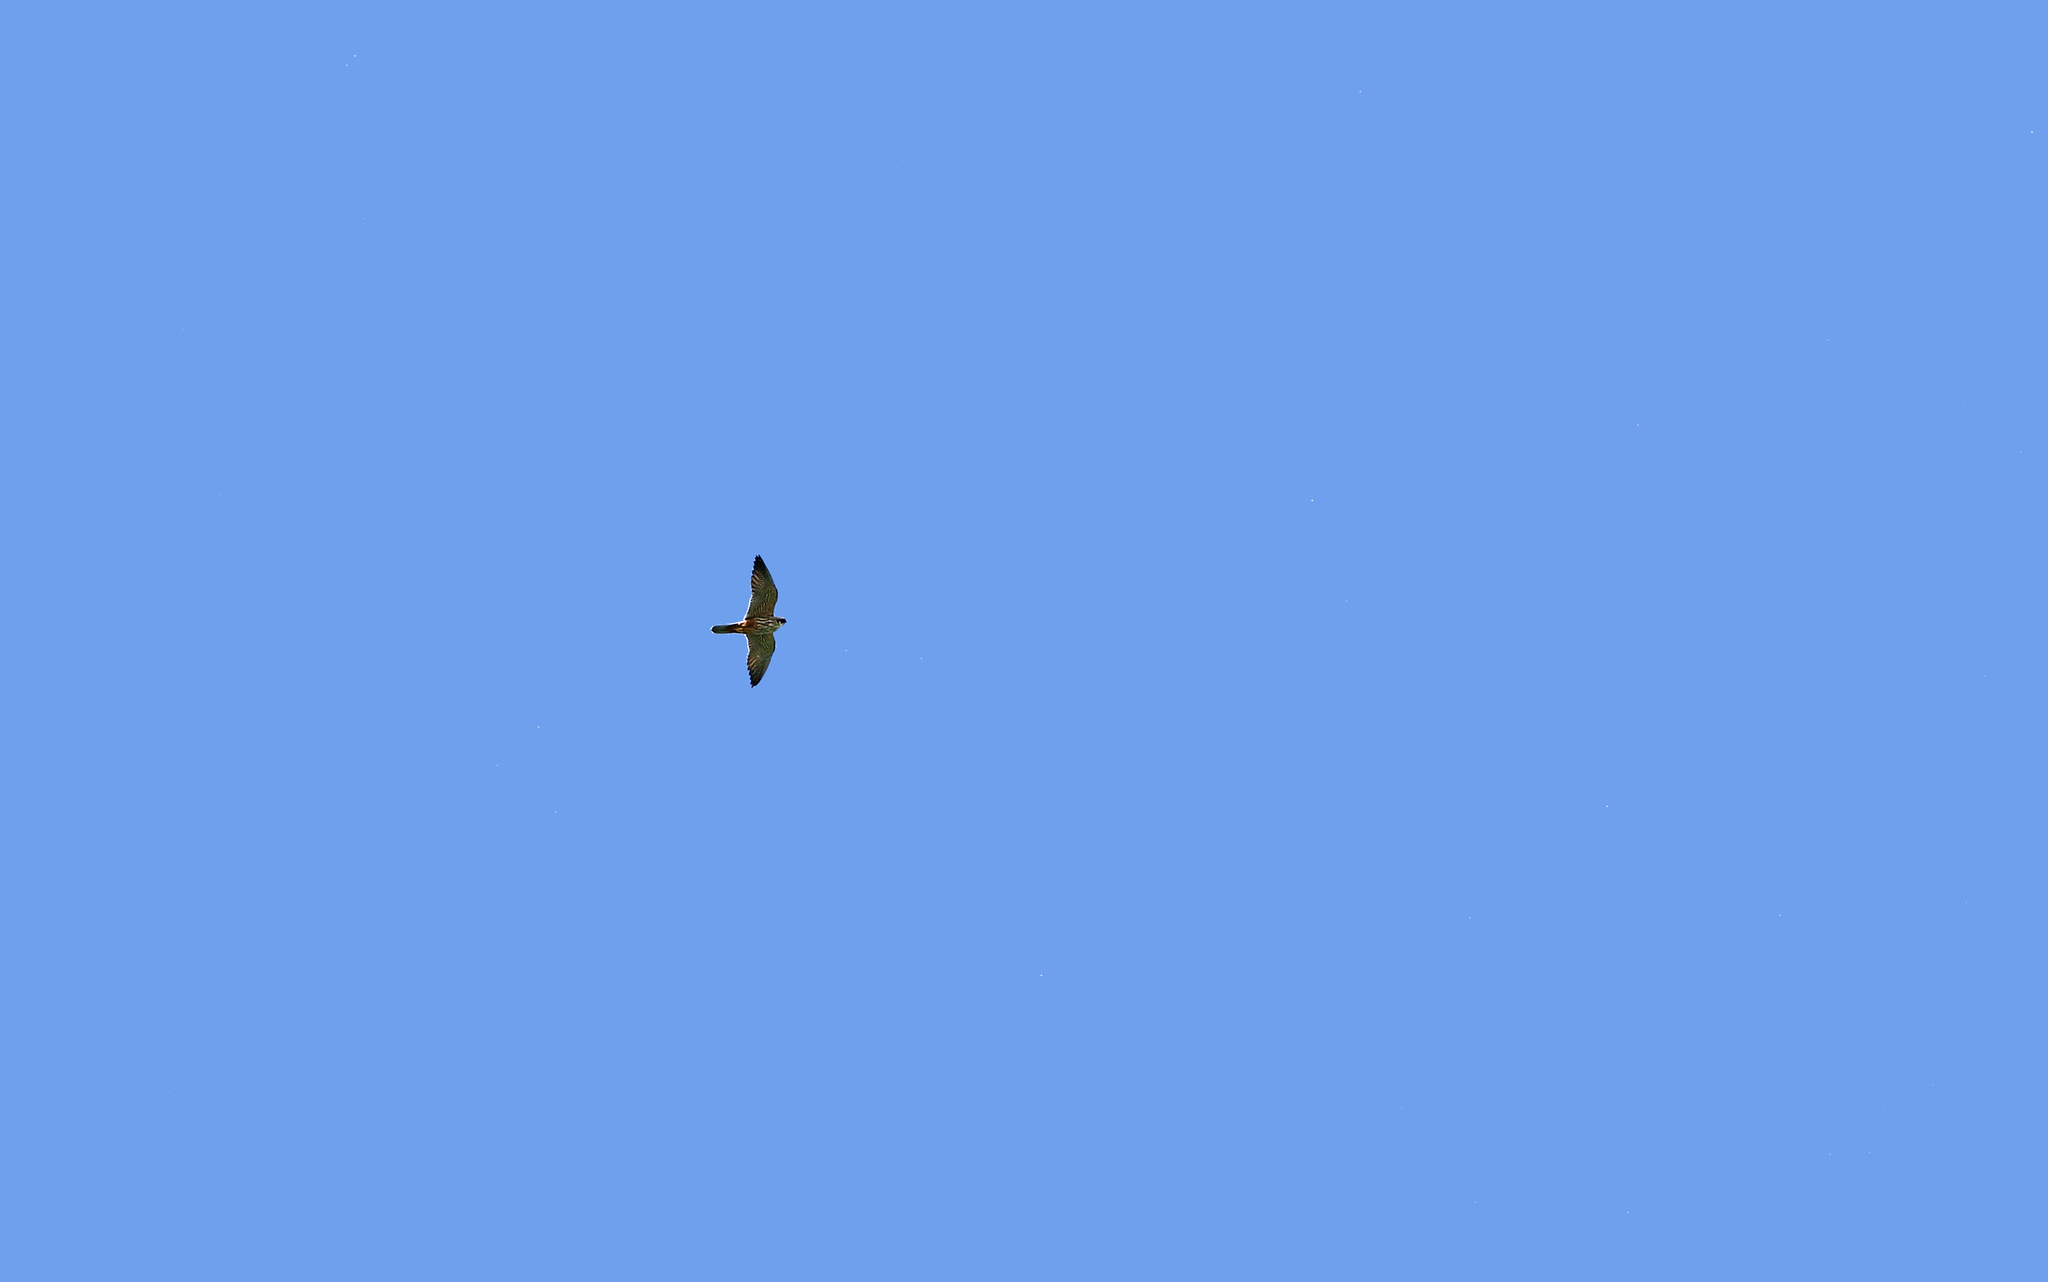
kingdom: Animalia
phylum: Chordata
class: Aves
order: Falconiformes
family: Falconidae
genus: Falco
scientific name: Falco subbuteo
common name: Eurasian hobby
